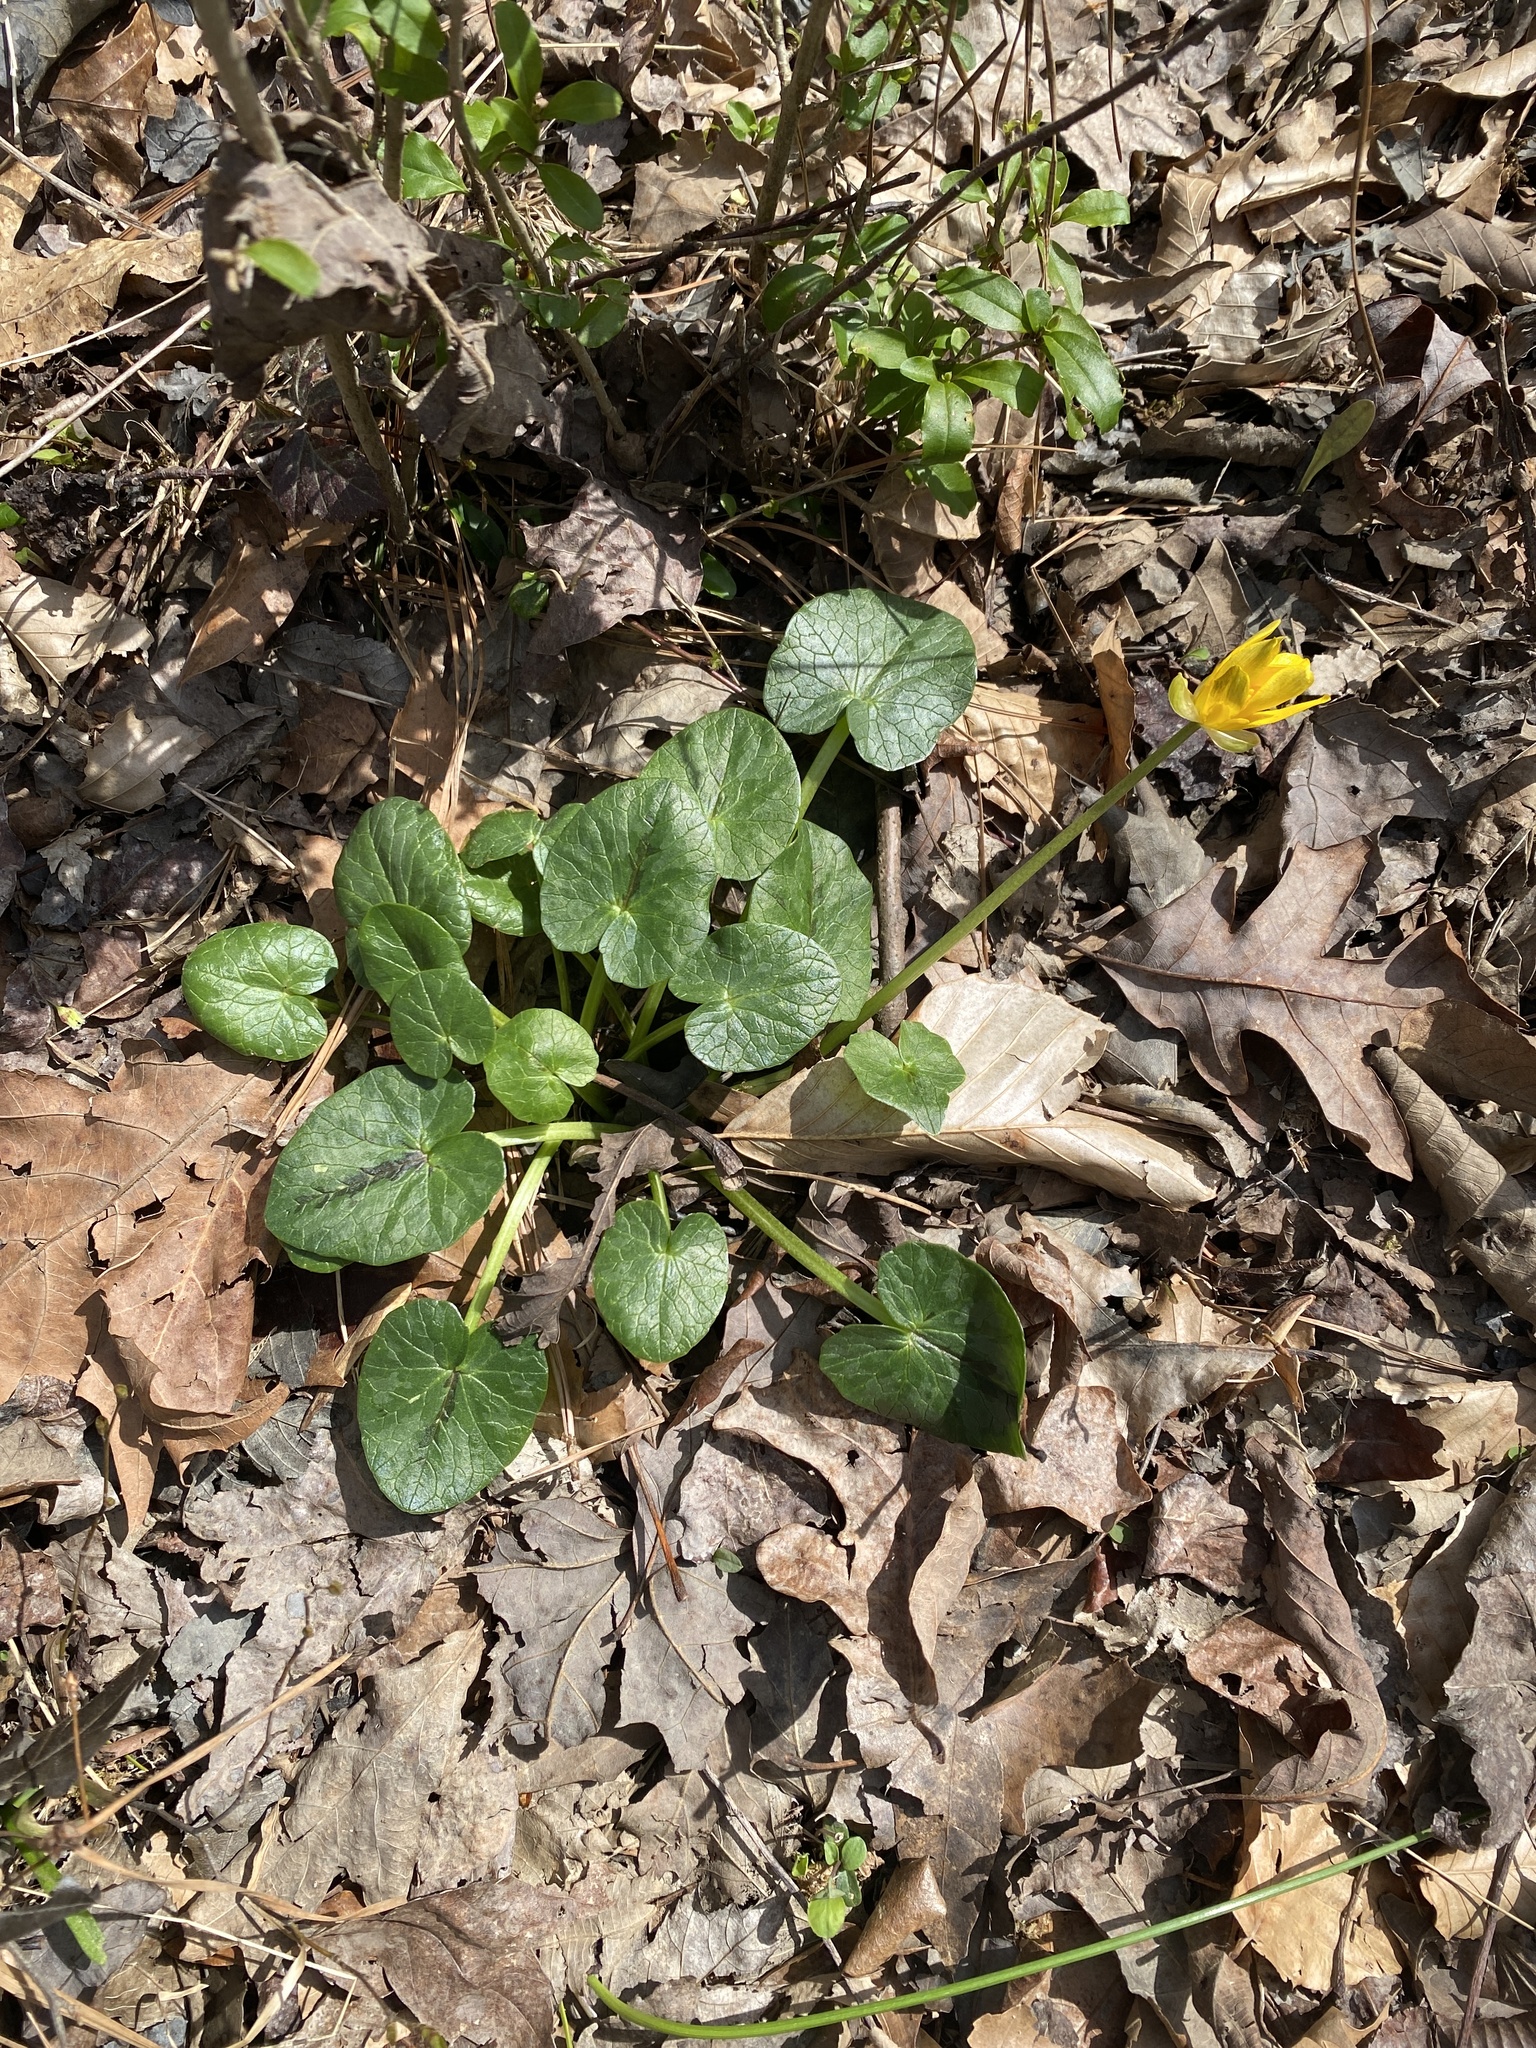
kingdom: Plantae
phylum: Tracheophyta
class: Magnoliopsida
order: Ranunculales
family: Ranunculaceae
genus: Ficaria
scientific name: Ficaria verna
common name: Lesser celandine
